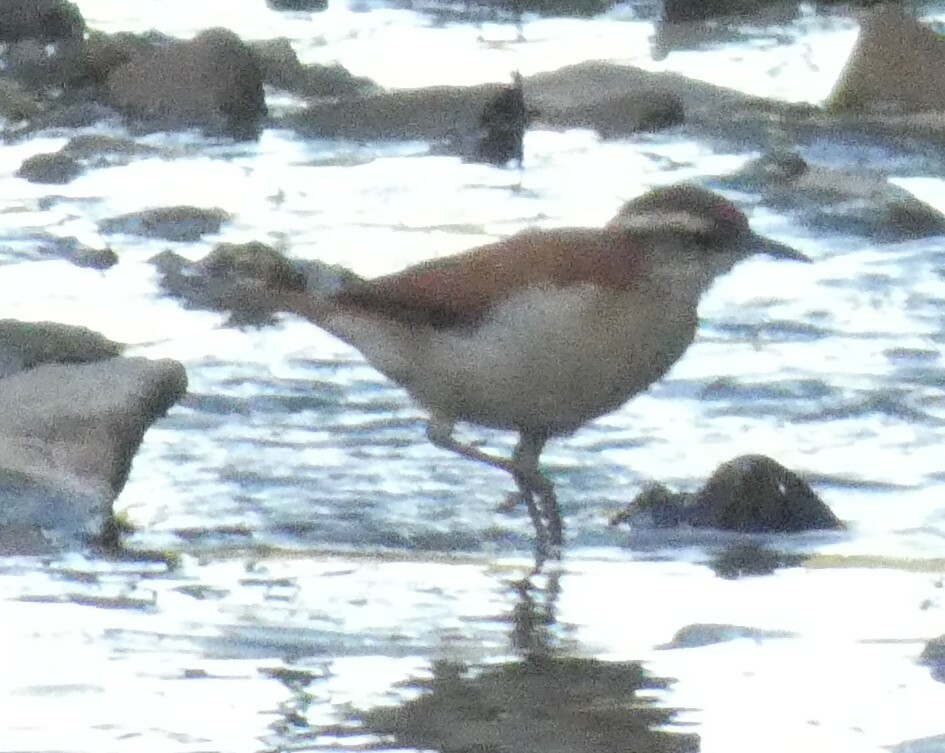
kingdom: Animalia
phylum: Chordata
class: Aves
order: Passeriformes
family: Furnariidae
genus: Furnarius
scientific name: Furnarius figulus
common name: Band-tailed hornero
